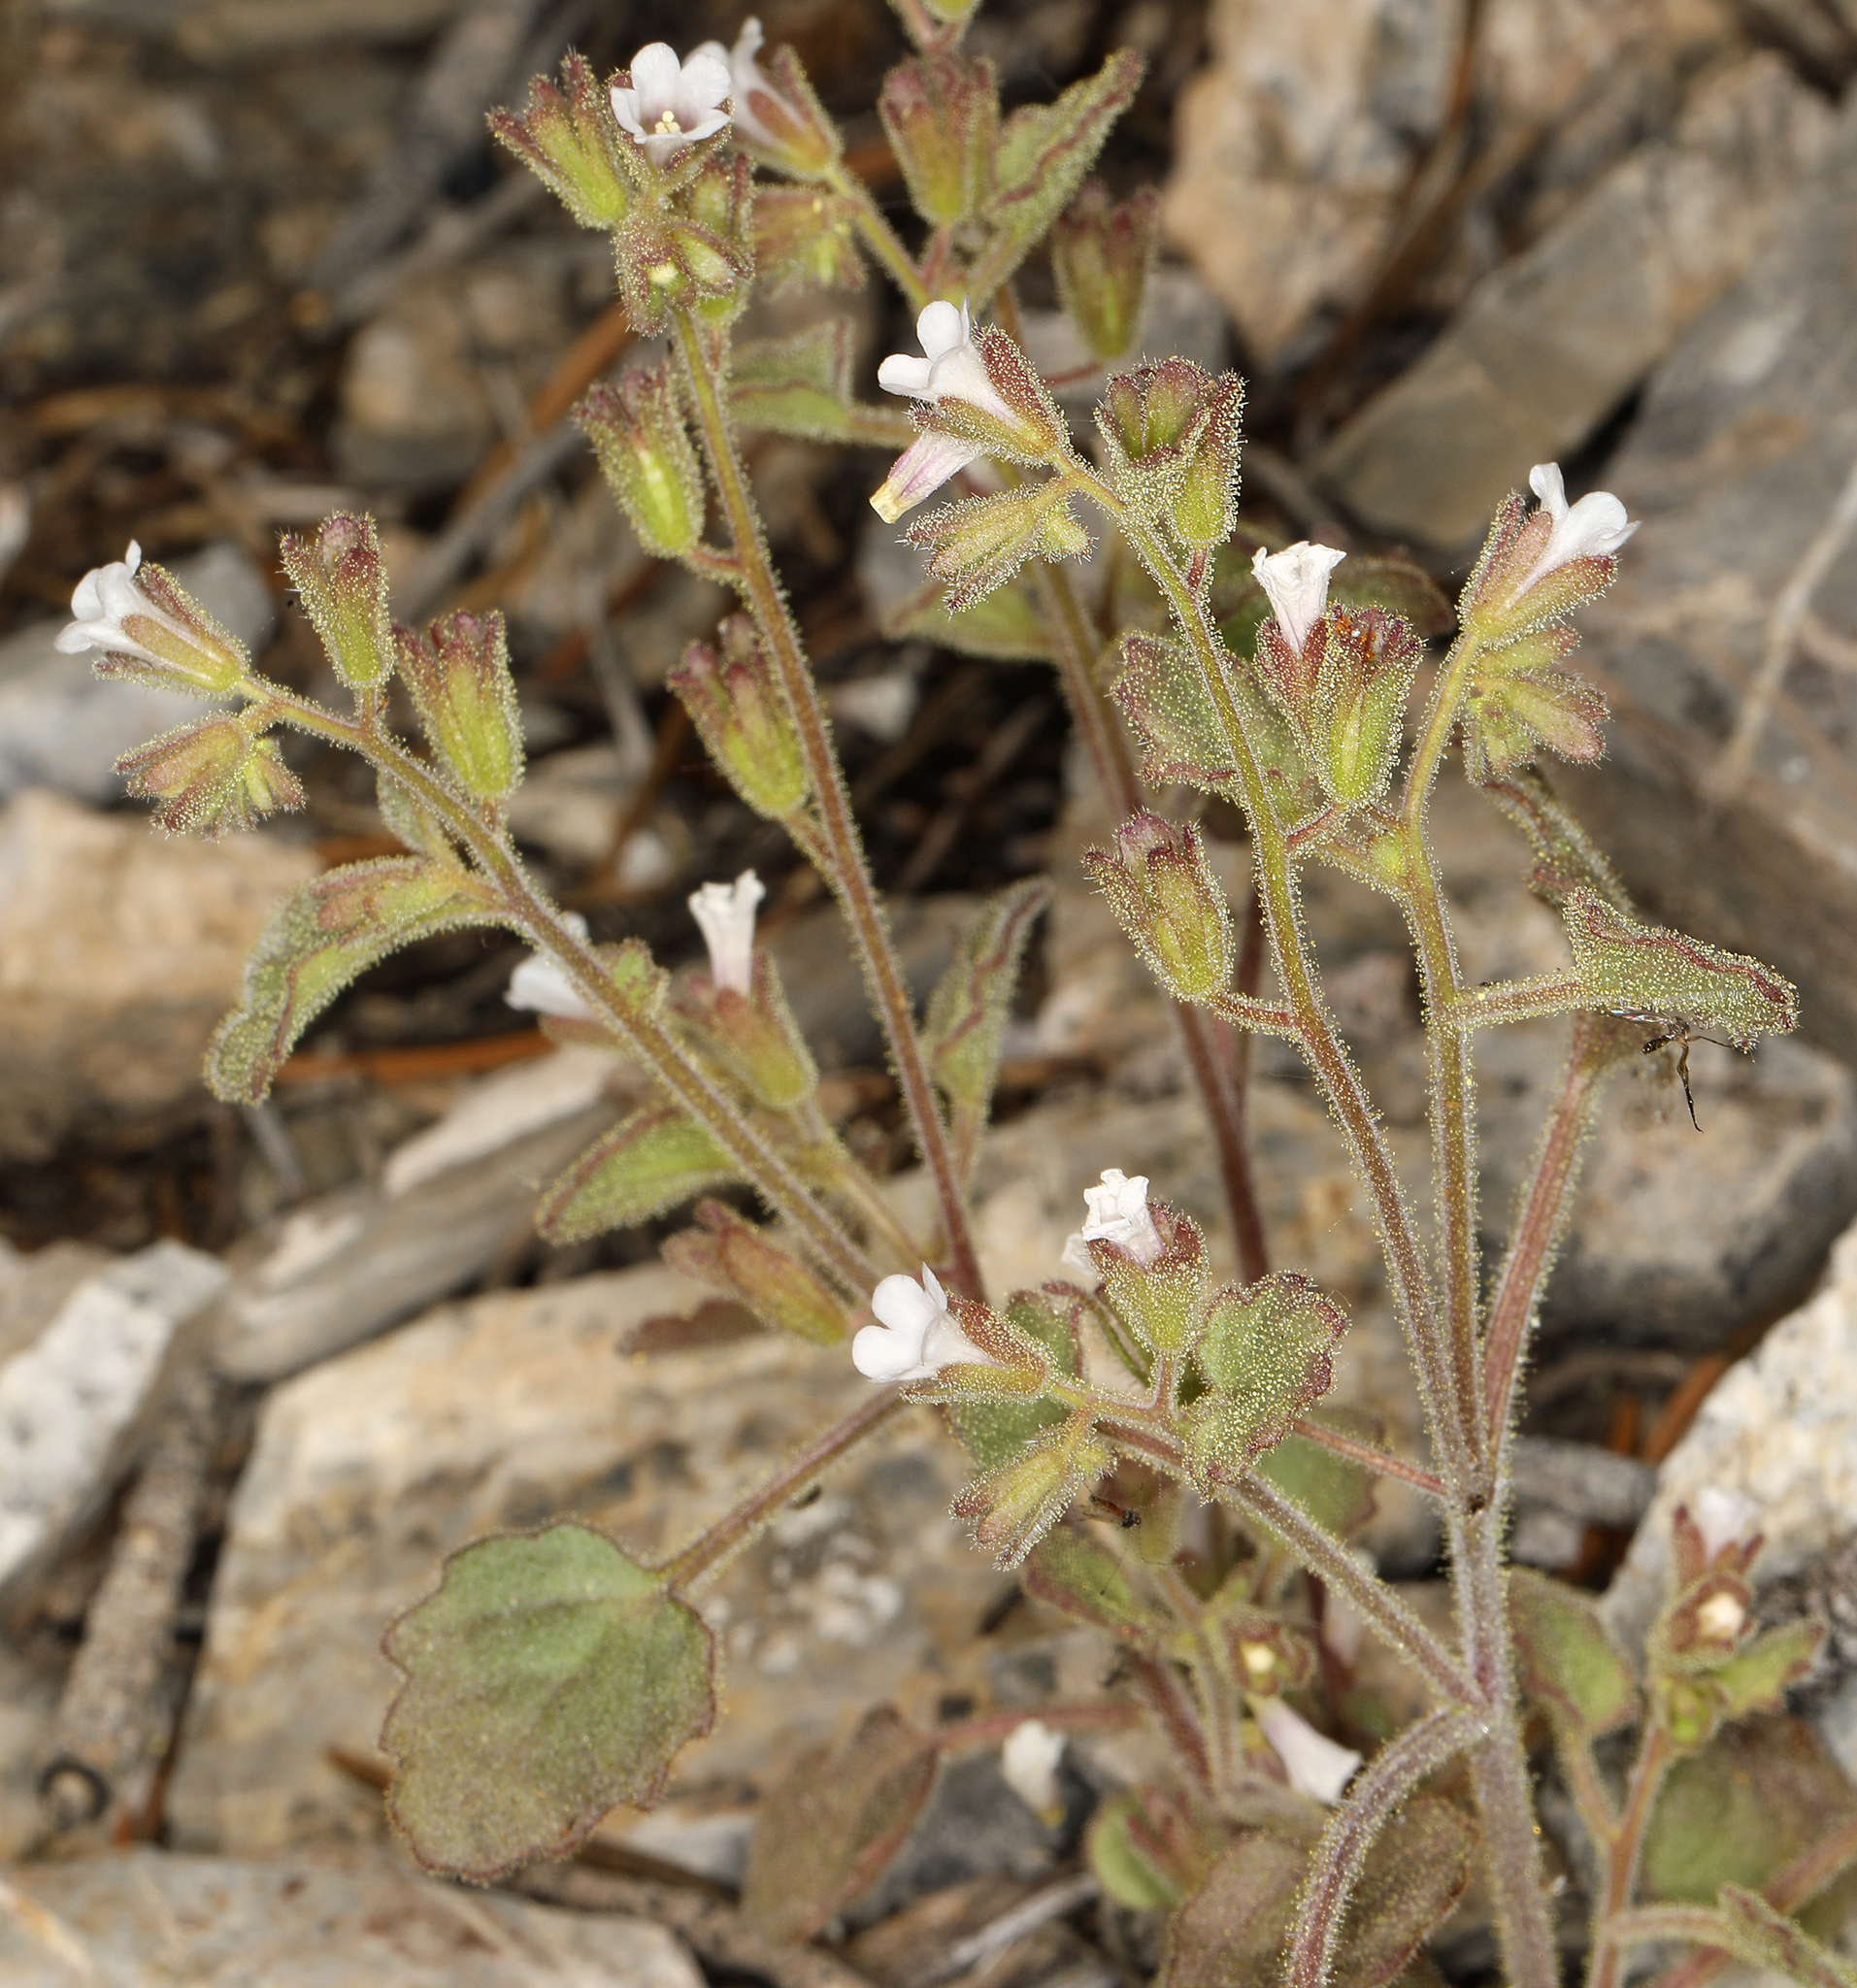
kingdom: Plantae
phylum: Tracheophyta
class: Magnoliopsida
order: Boraginales
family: Hydrophyllaceae
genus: Phacelia
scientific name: Phacelia peirsoniana
